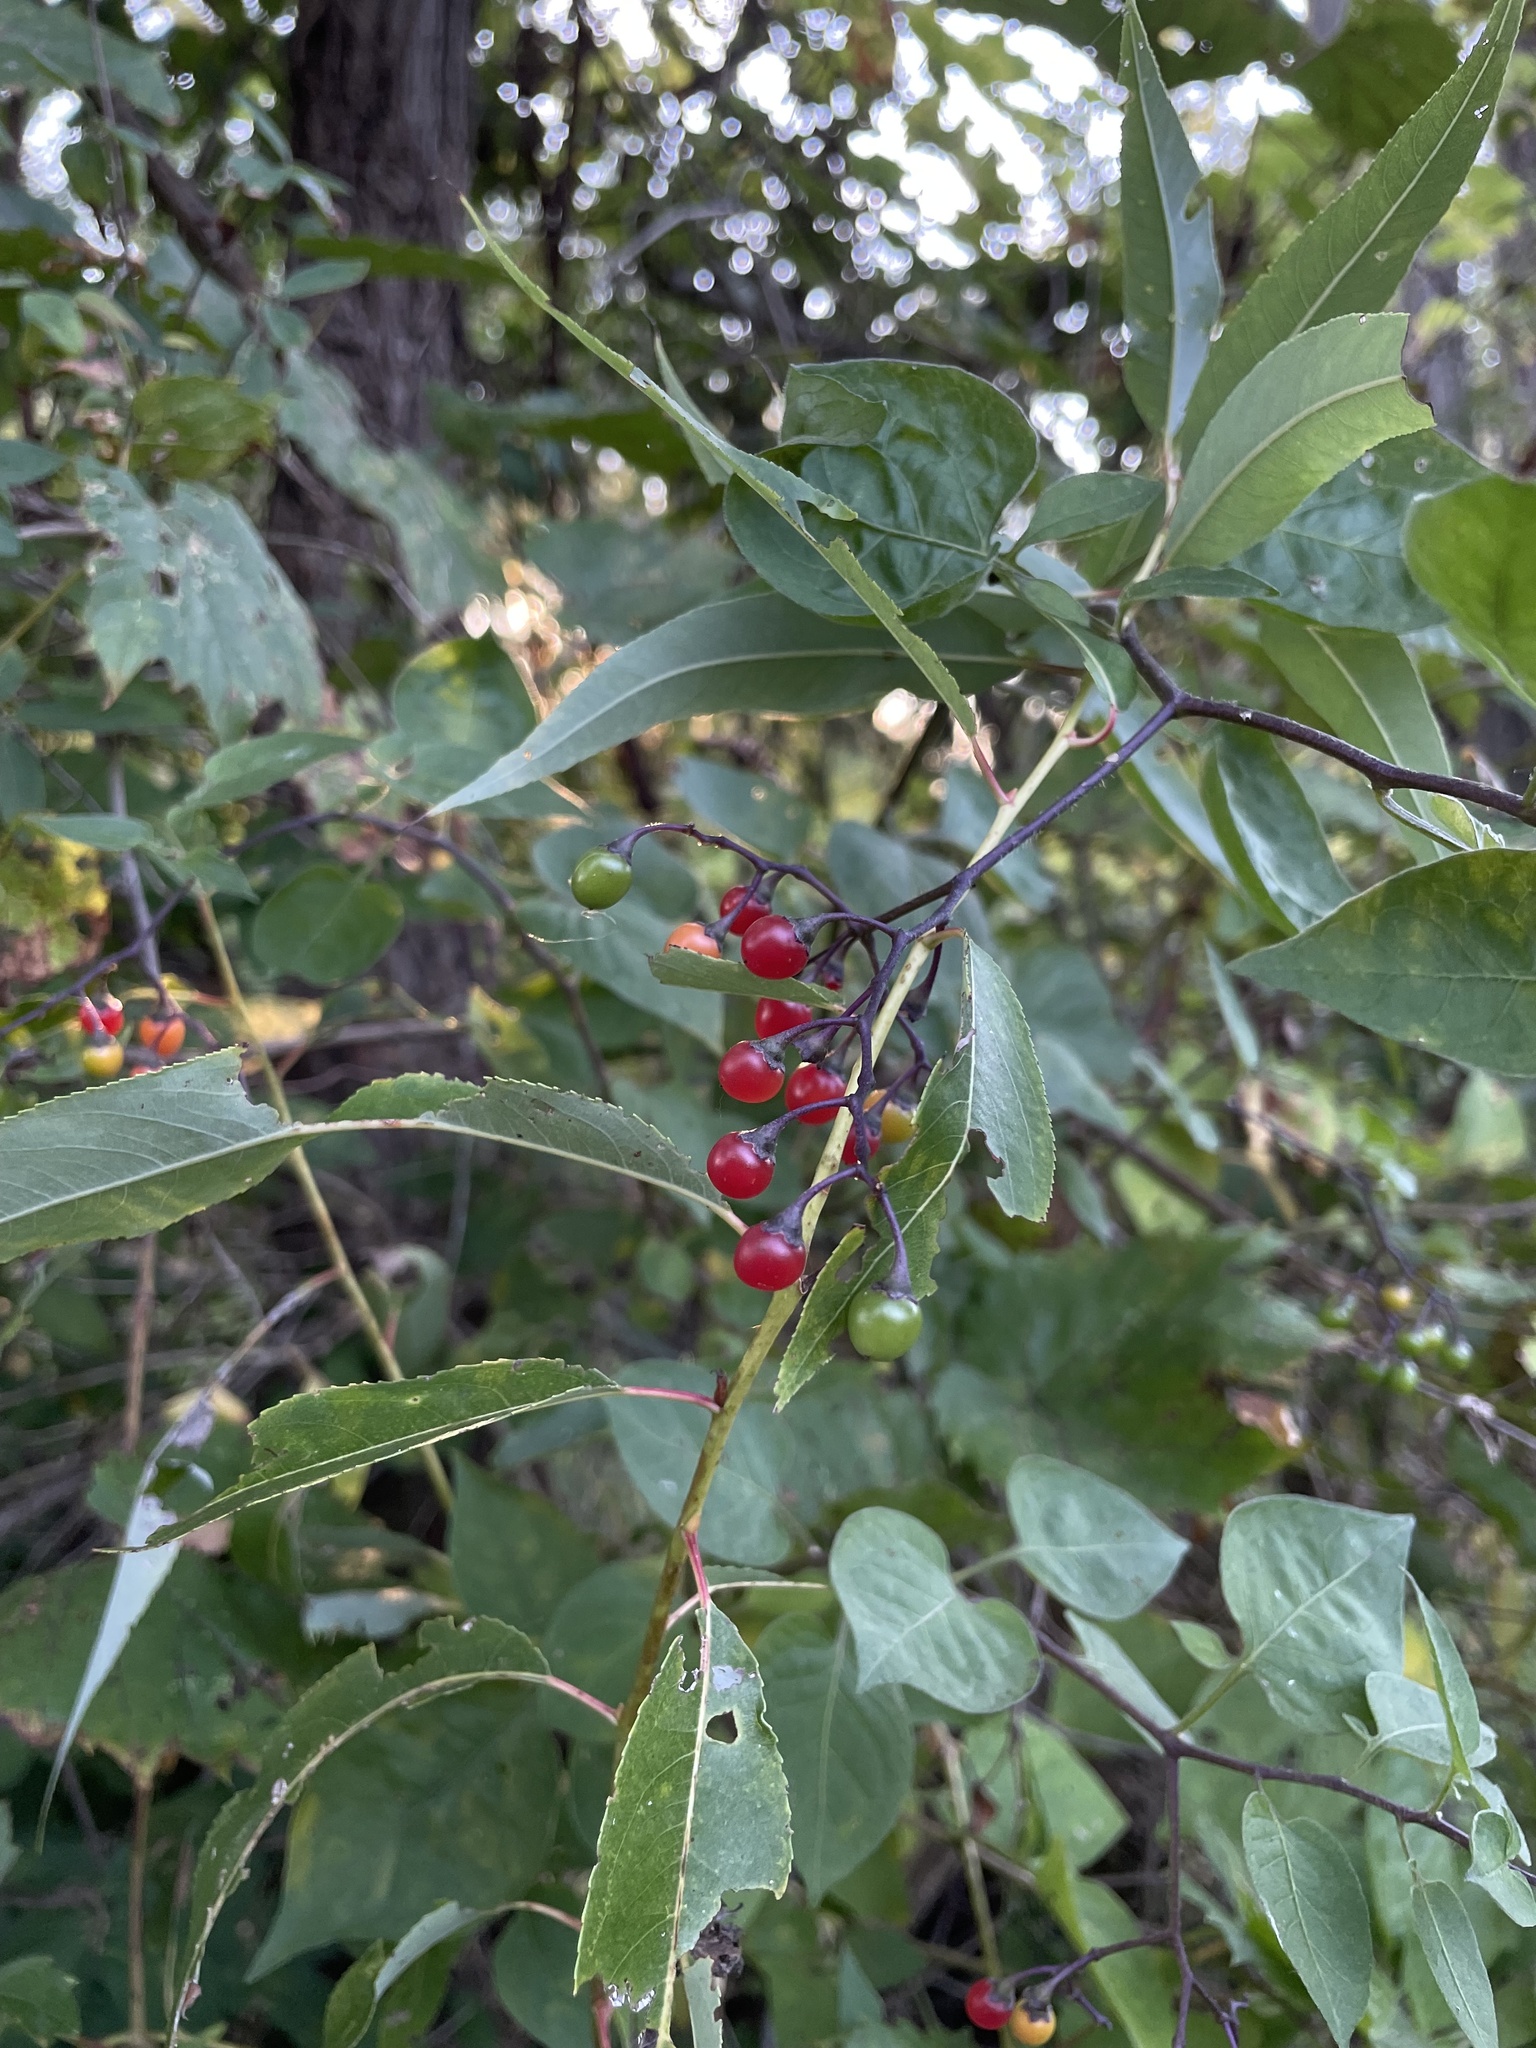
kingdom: Plantae
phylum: Tracheophyta
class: Magnoliopsida
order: Solanales
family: Solanaceae
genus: Solanum
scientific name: Solanum dulcamara
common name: Climbing nightshade
